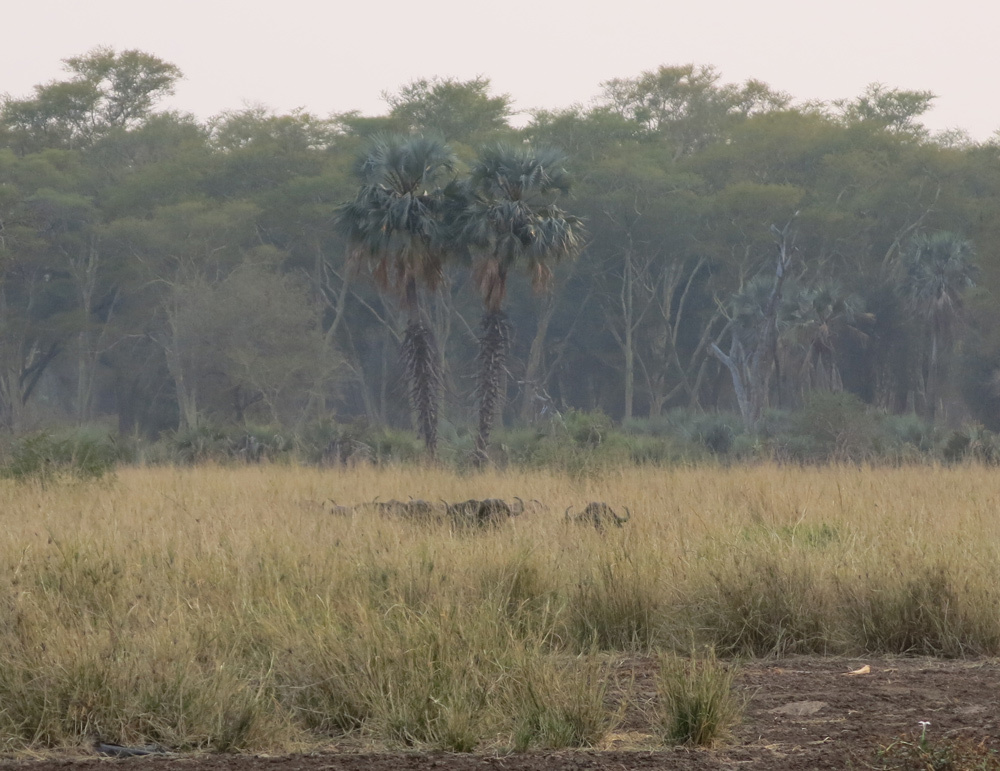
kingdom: Animalia
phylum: Chordata
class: Mammalia
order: Artiodactyla
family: Bovidae
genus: Syncerus
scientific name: Syncerus caffer
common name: African buffalo
